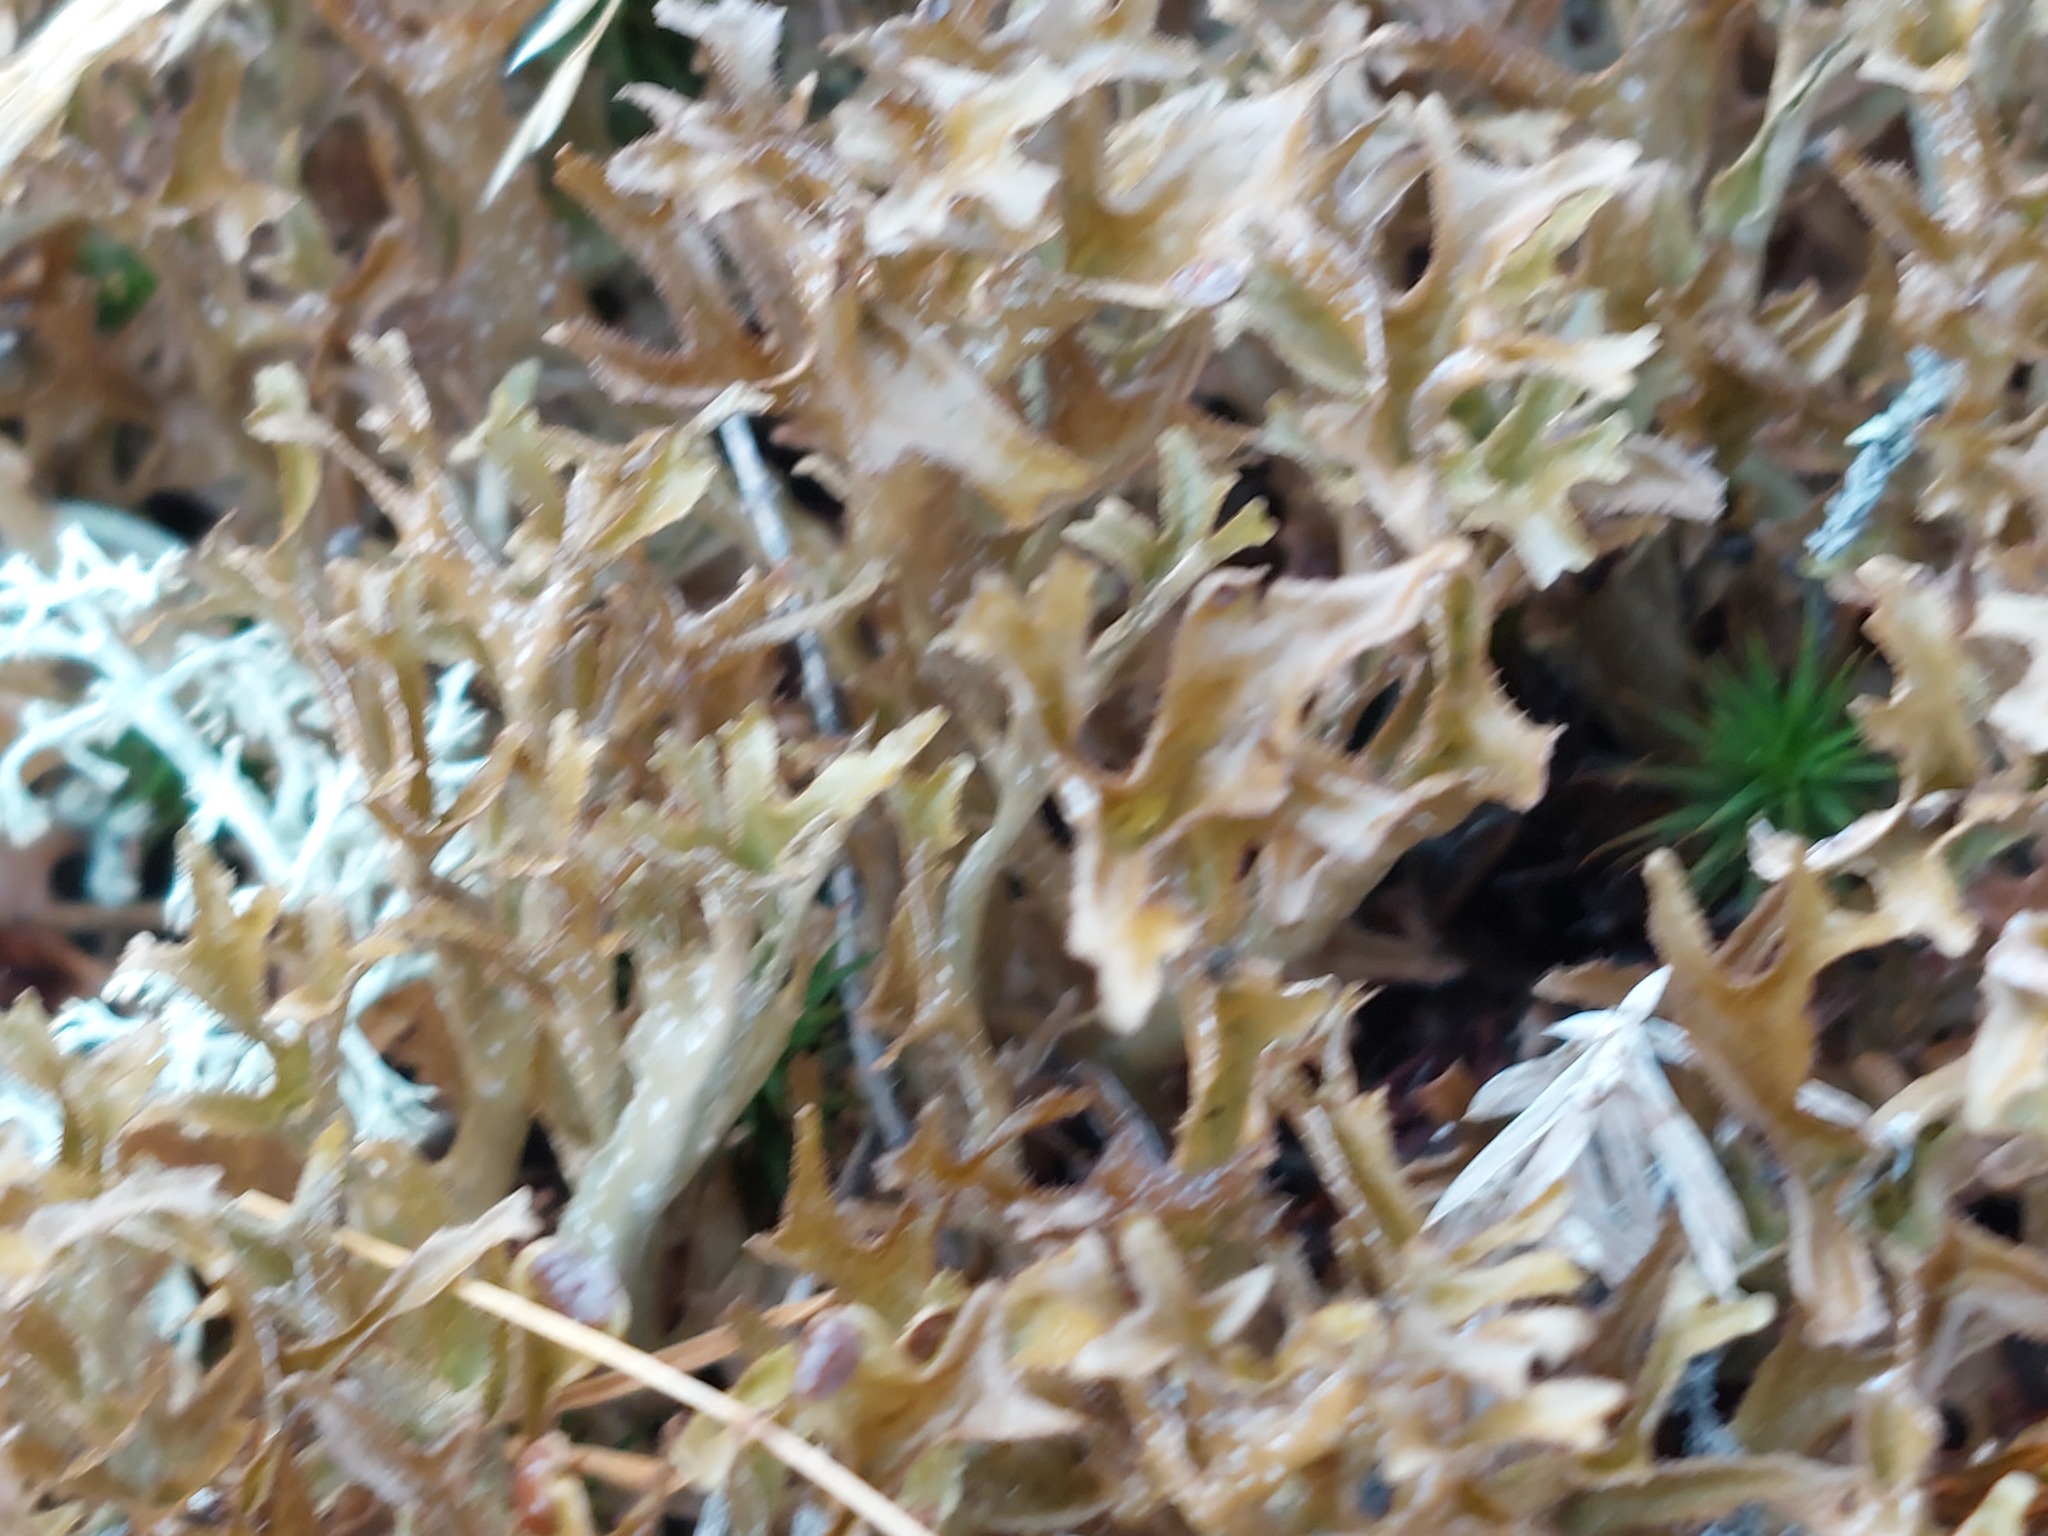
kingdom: Fungi
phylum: Ascomycota
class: Lecanoromycetes
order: Lecanorales
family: Parmeliaceae
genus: Cetraria
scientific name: Cetraria islandica
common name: Iceland lichen
